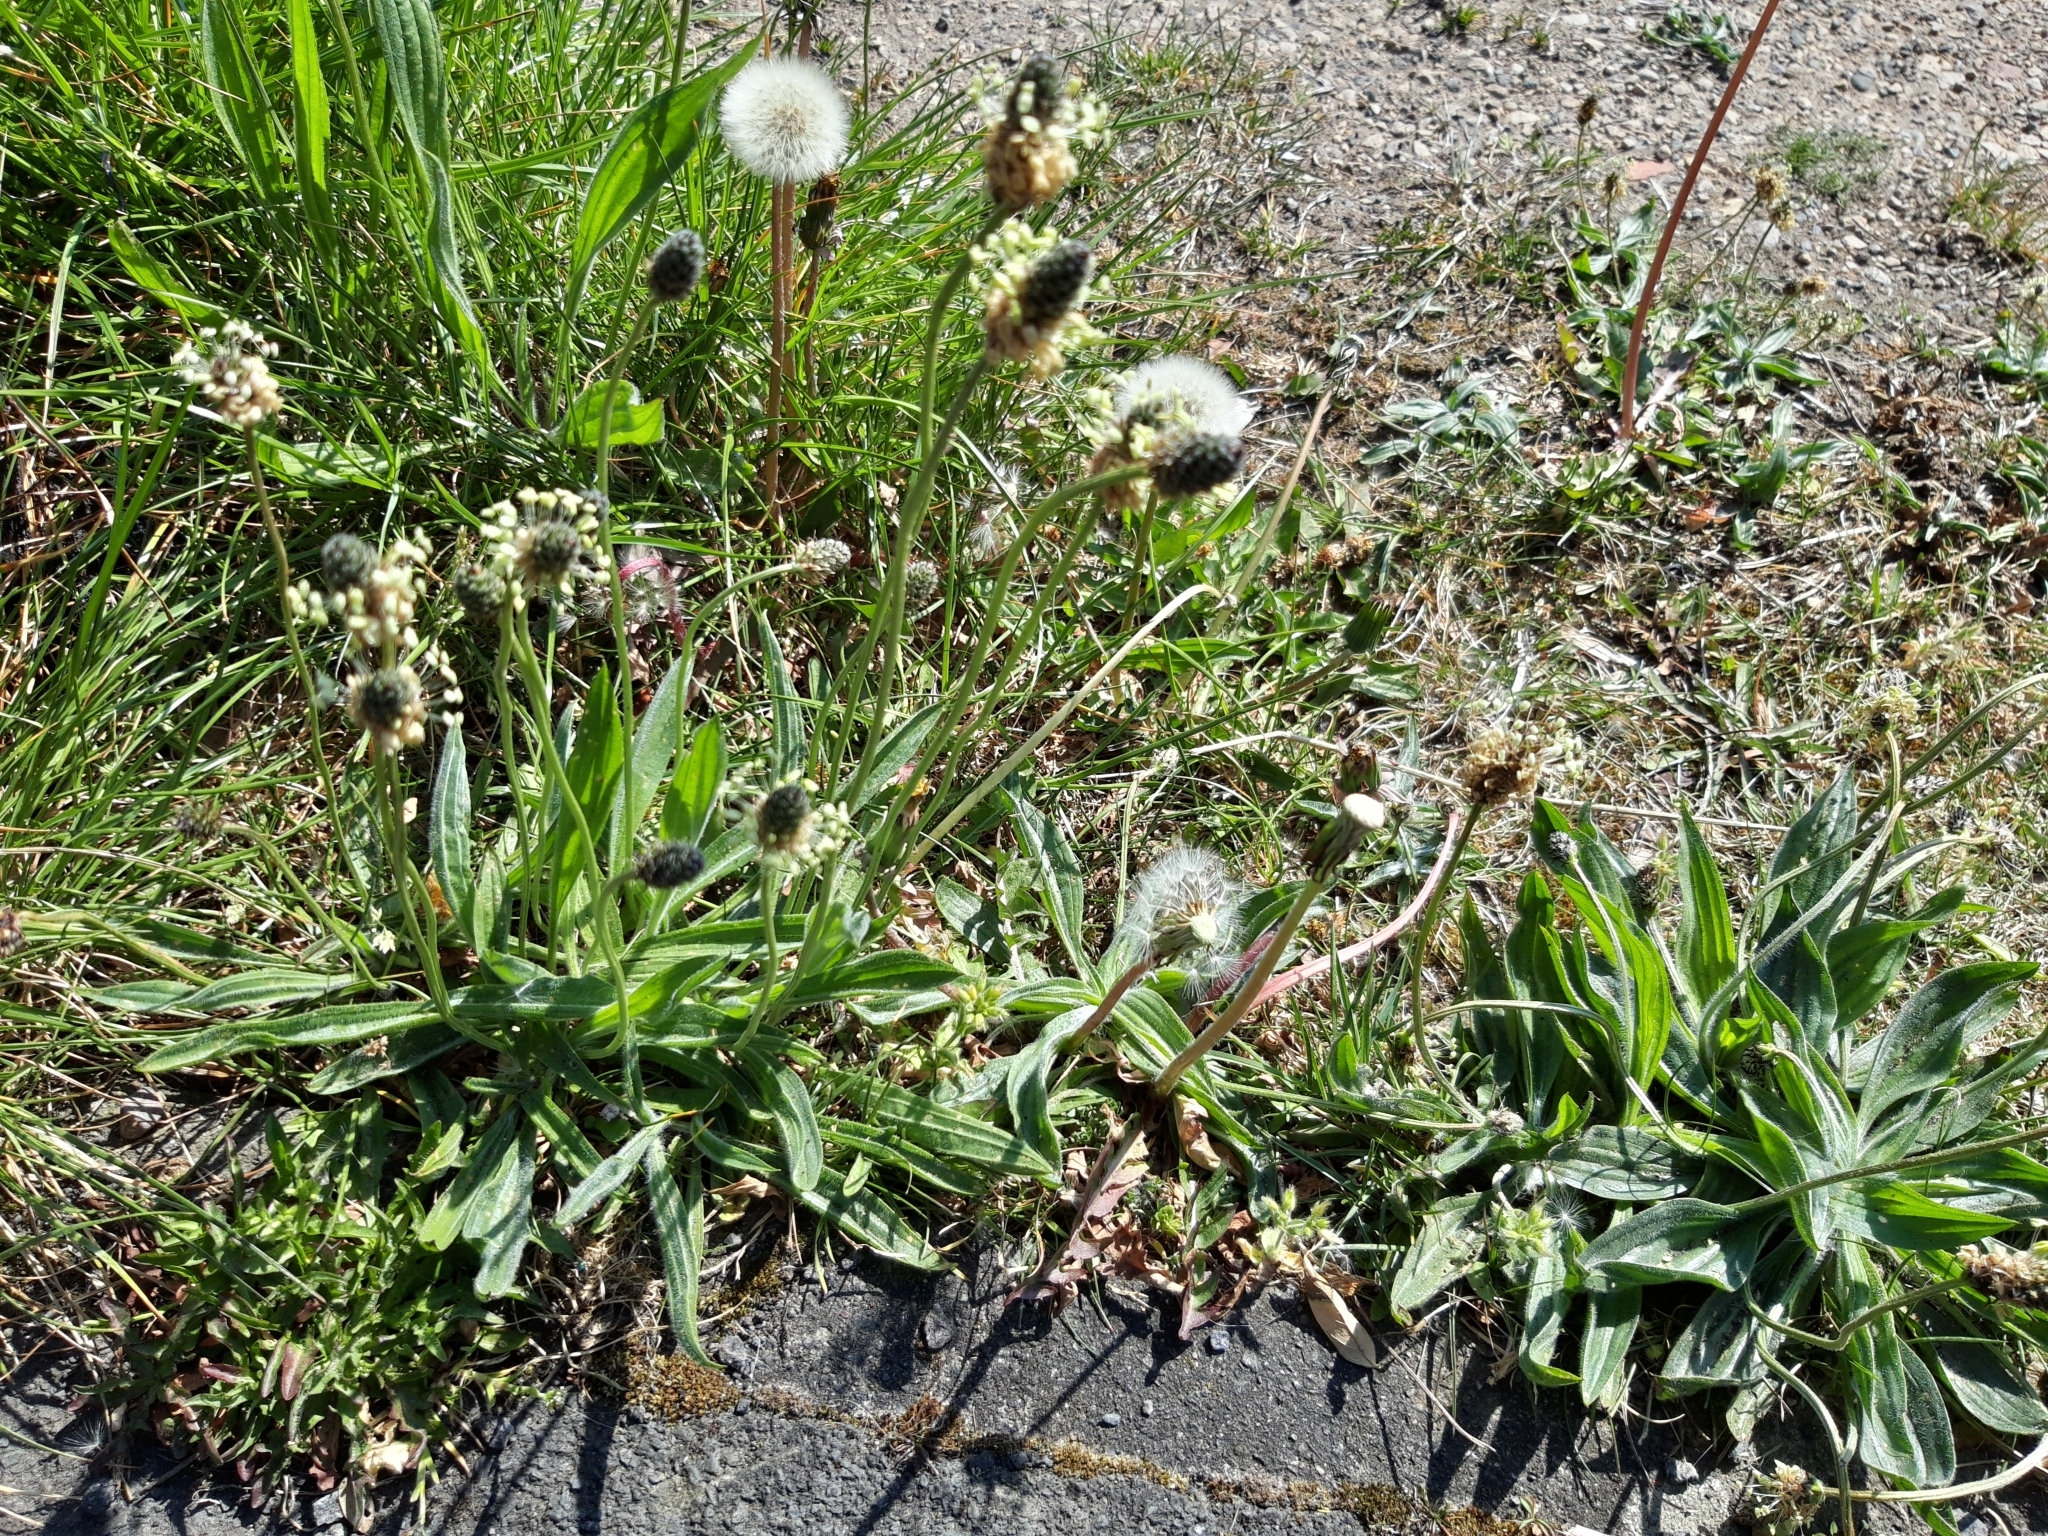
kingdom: Plantae
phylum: Tracheophyta
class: Magnoliopsida
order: Lamiales
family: Plantaginaceae
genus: Plantago
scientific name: Plantago lanceolata
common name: Ribwort plantain
